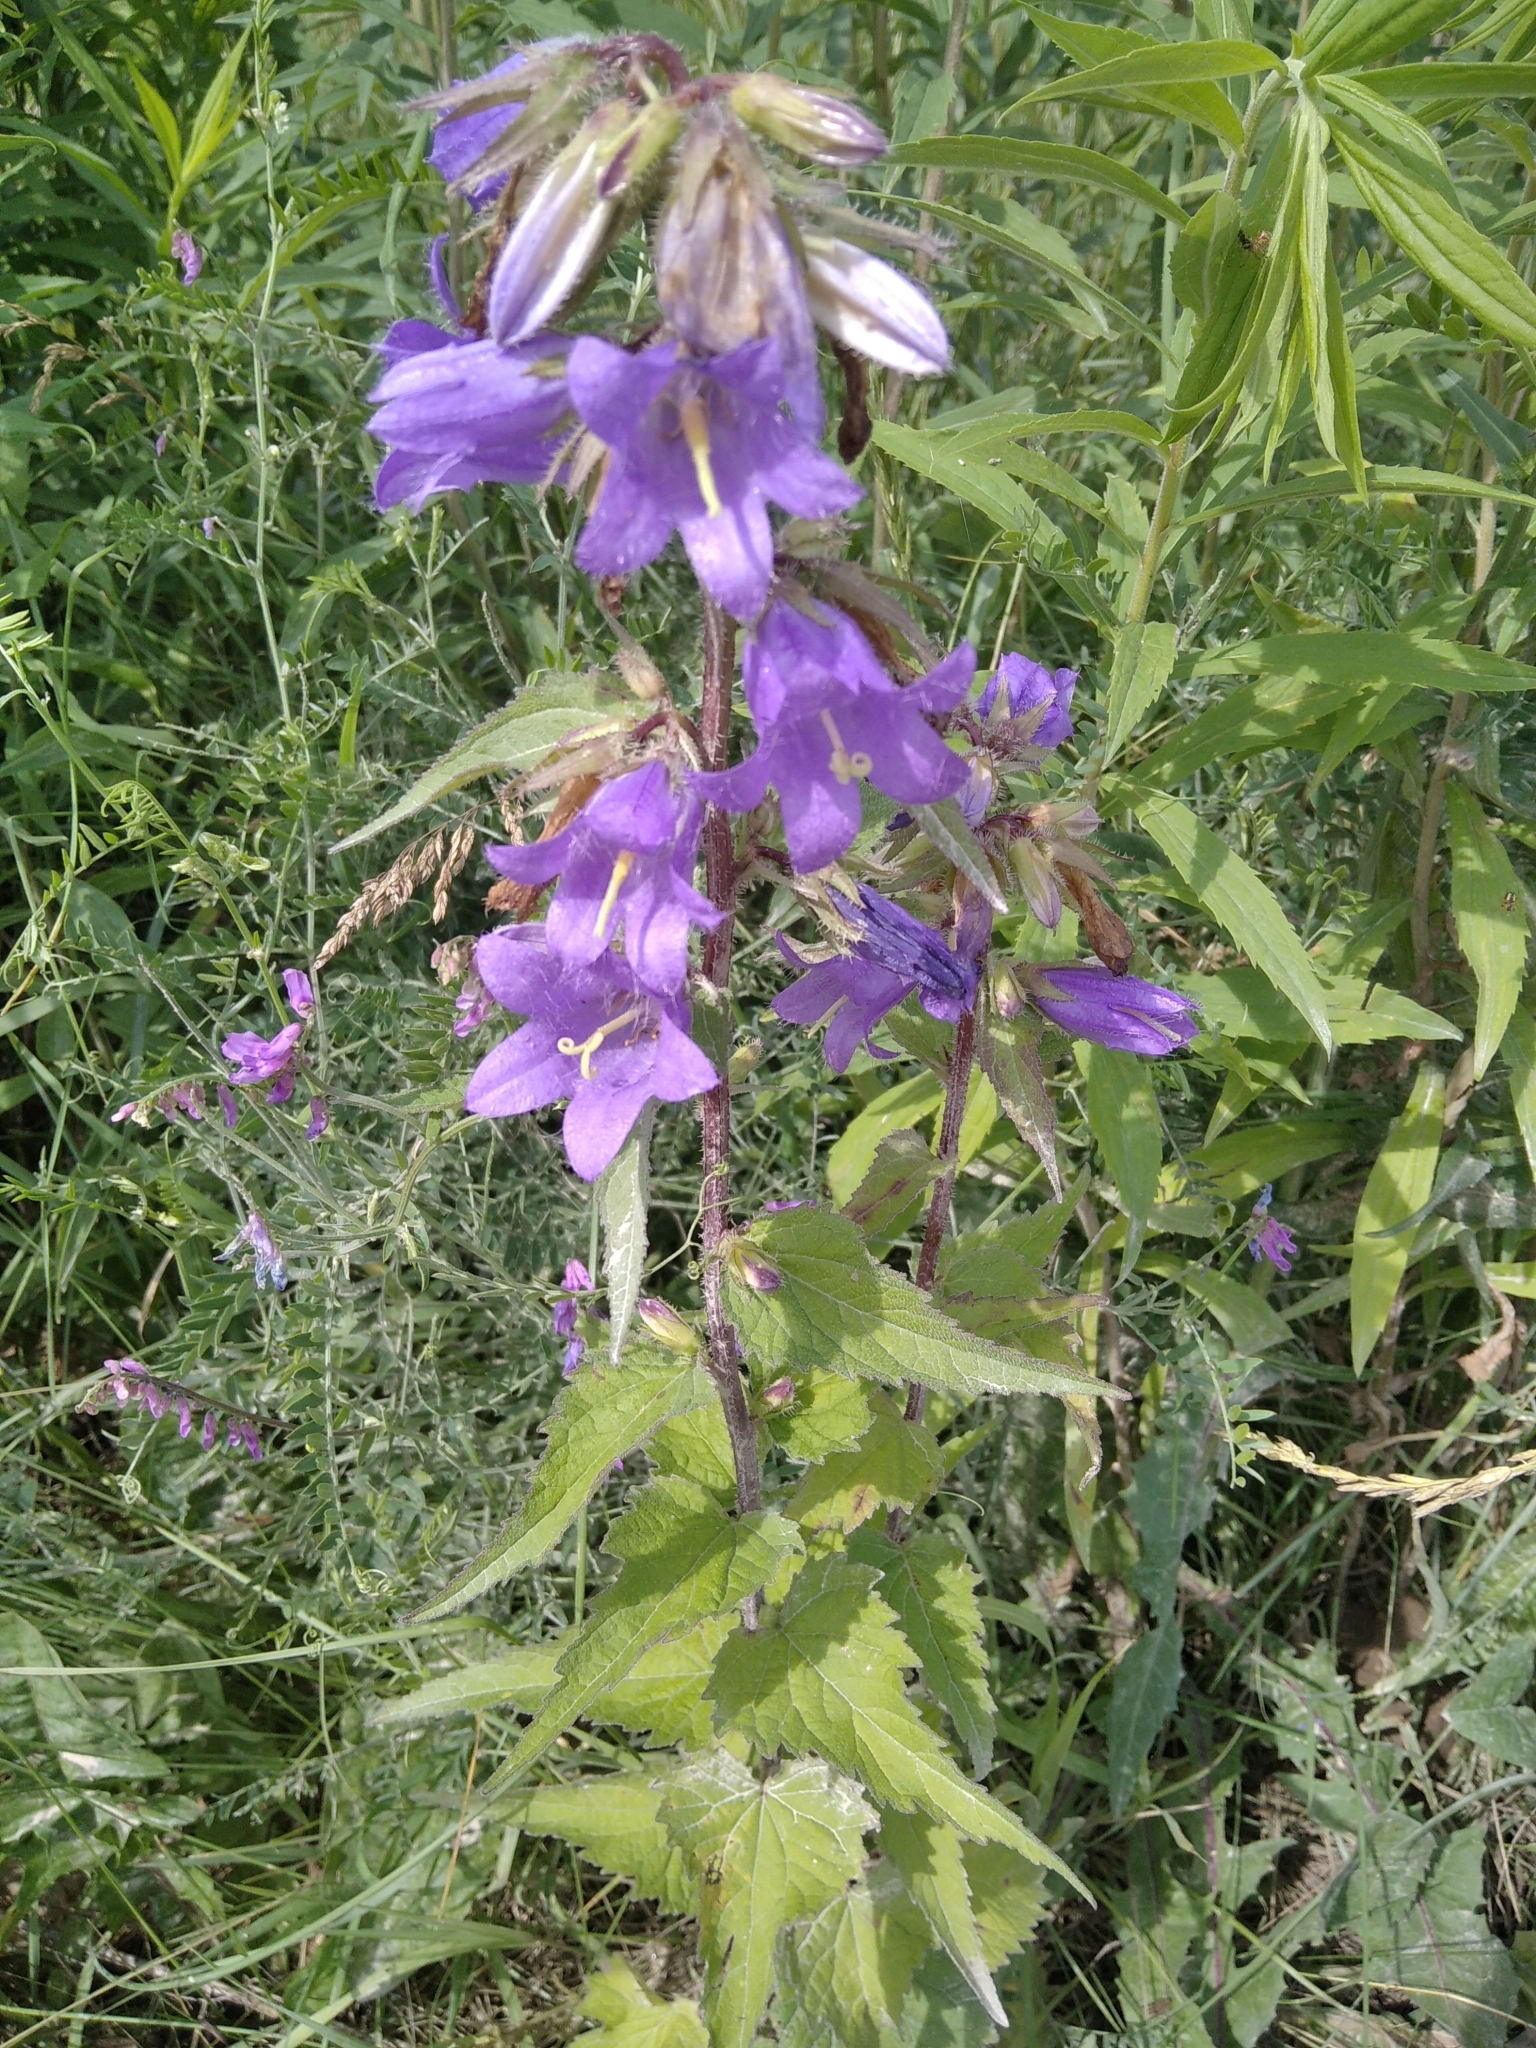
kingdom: Plantae
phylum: Tracheophyta
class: Magnoliopsida
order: Asterales
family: Campanulaceae
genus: Campanula
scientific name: Campanula trachelium
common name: Nettle-leaved bellflower
